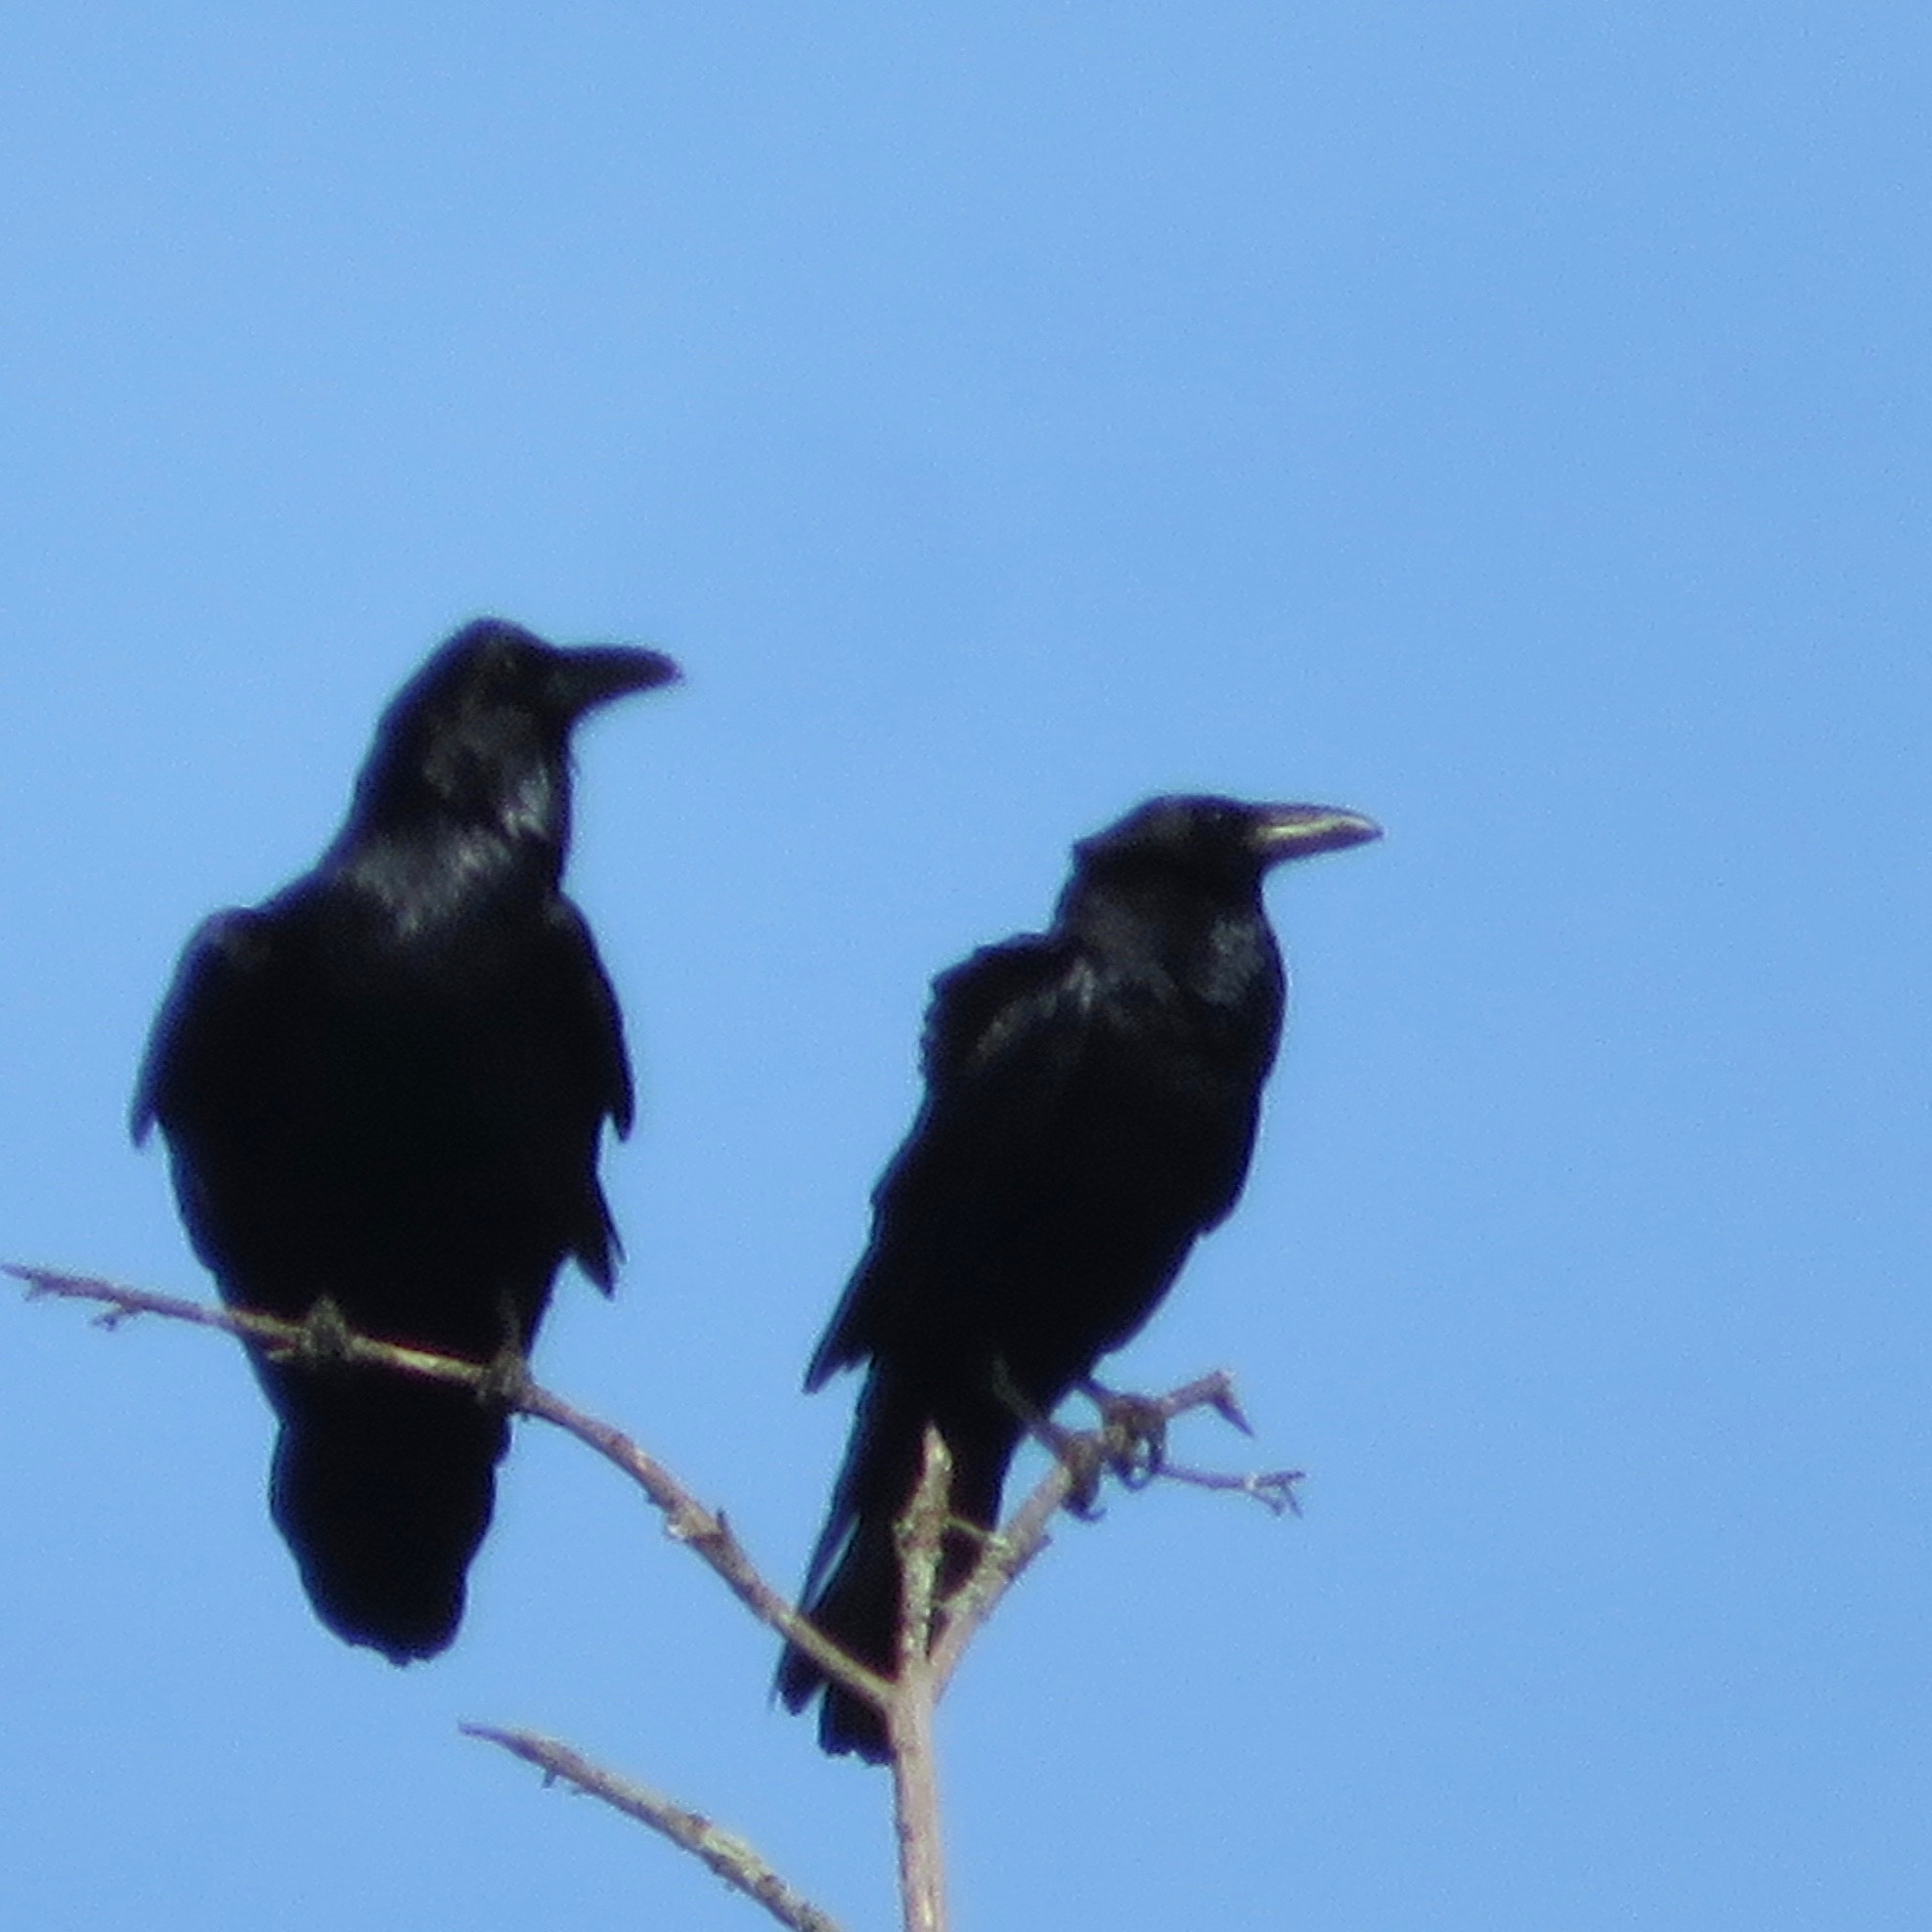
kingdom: Animalia
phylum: Chordata
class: Aves
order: Passeriformes
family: Corvidae
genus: Corvus
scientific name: Corvus corax
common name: Common raven
